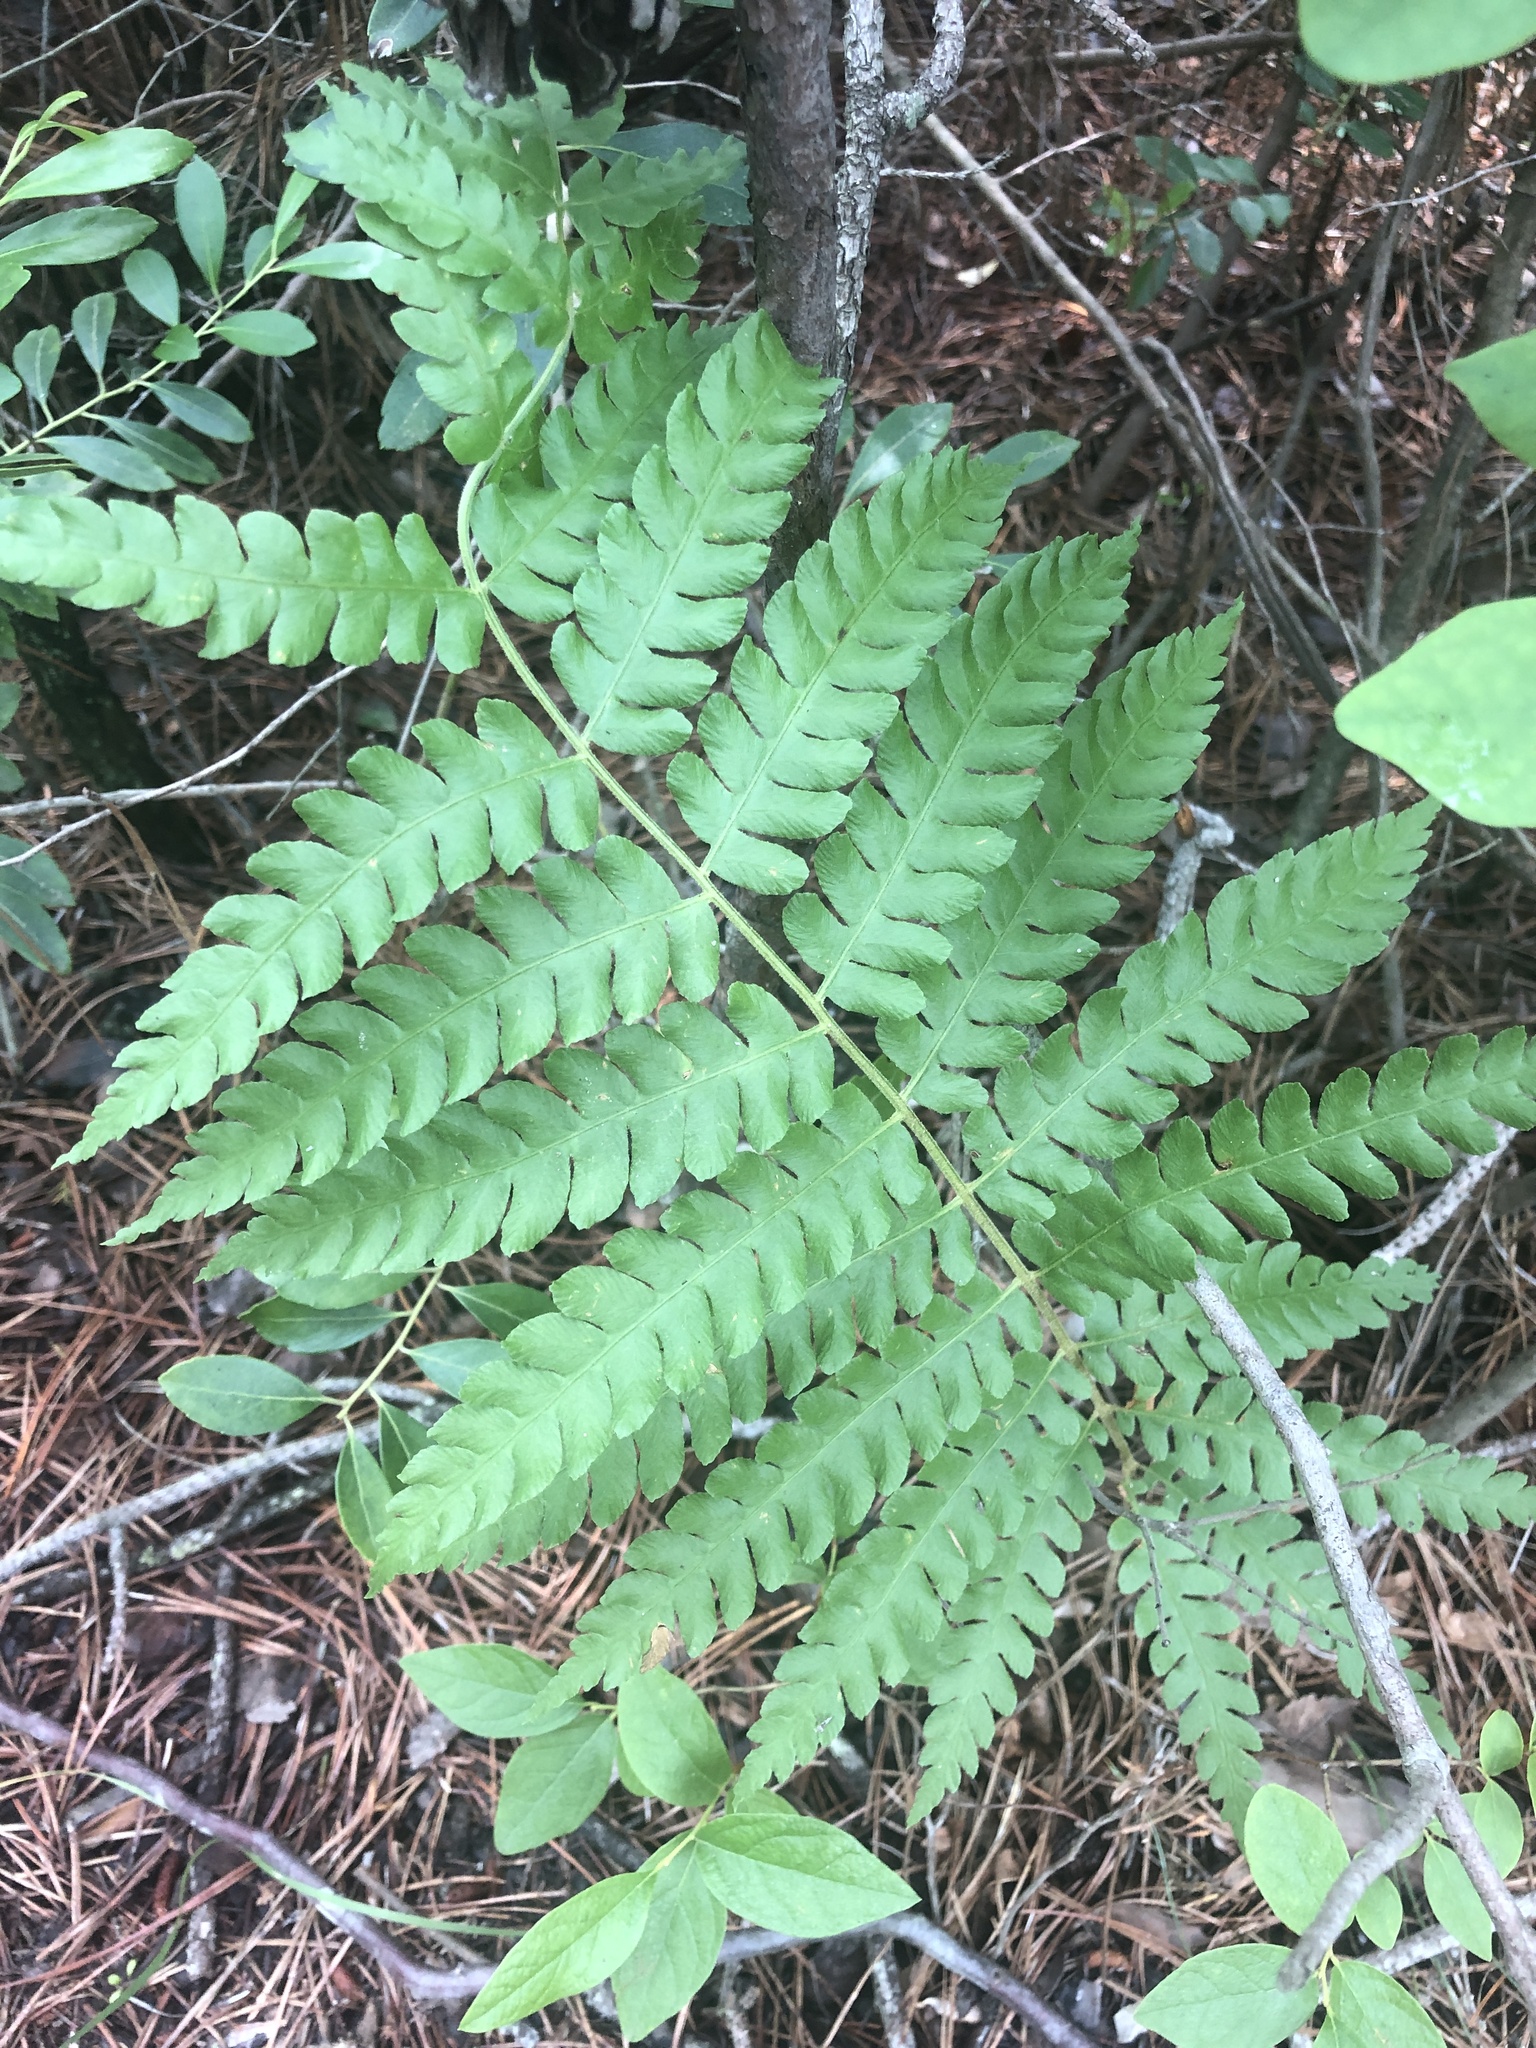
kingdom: Plantae
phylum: Tracheophyta
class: Polypodiopsida
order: Osmundales
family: Osmundaceae
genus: Osmundastrum
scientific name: Osmundastrum cinnamomeum
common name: Cinnamon fern
